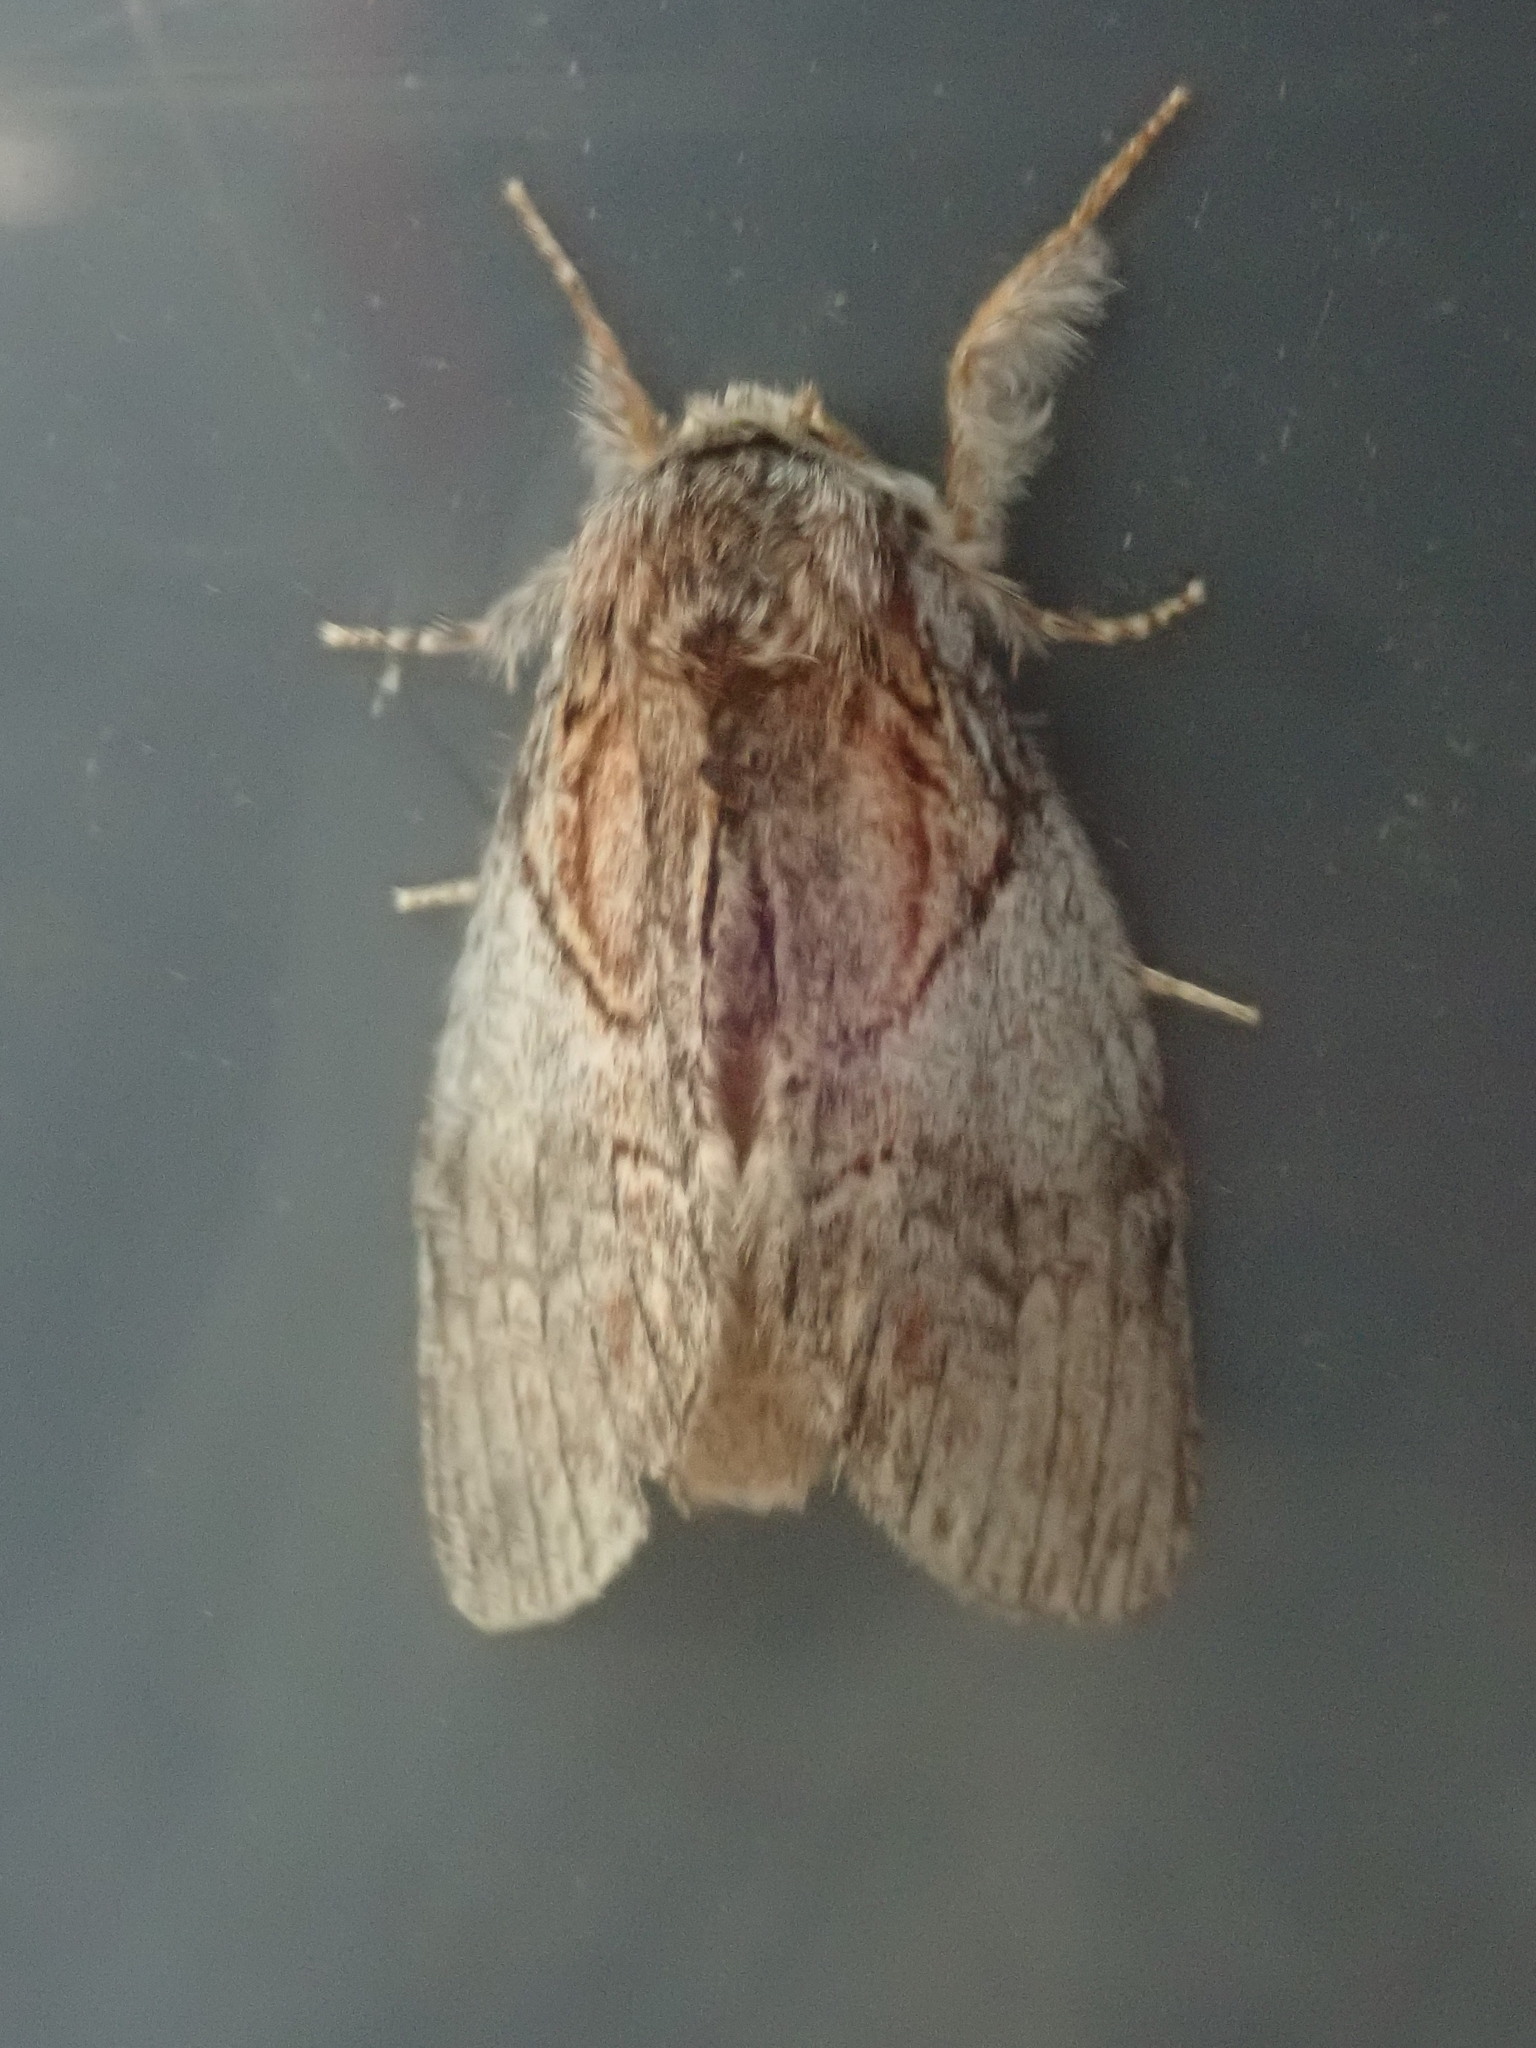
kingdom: Animalia
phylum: Arthropoda
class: Insecta
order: Lepidoptera
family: Notodontidae
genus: Peridea
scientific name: Peridea basitriens
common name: Oval-based prominent
